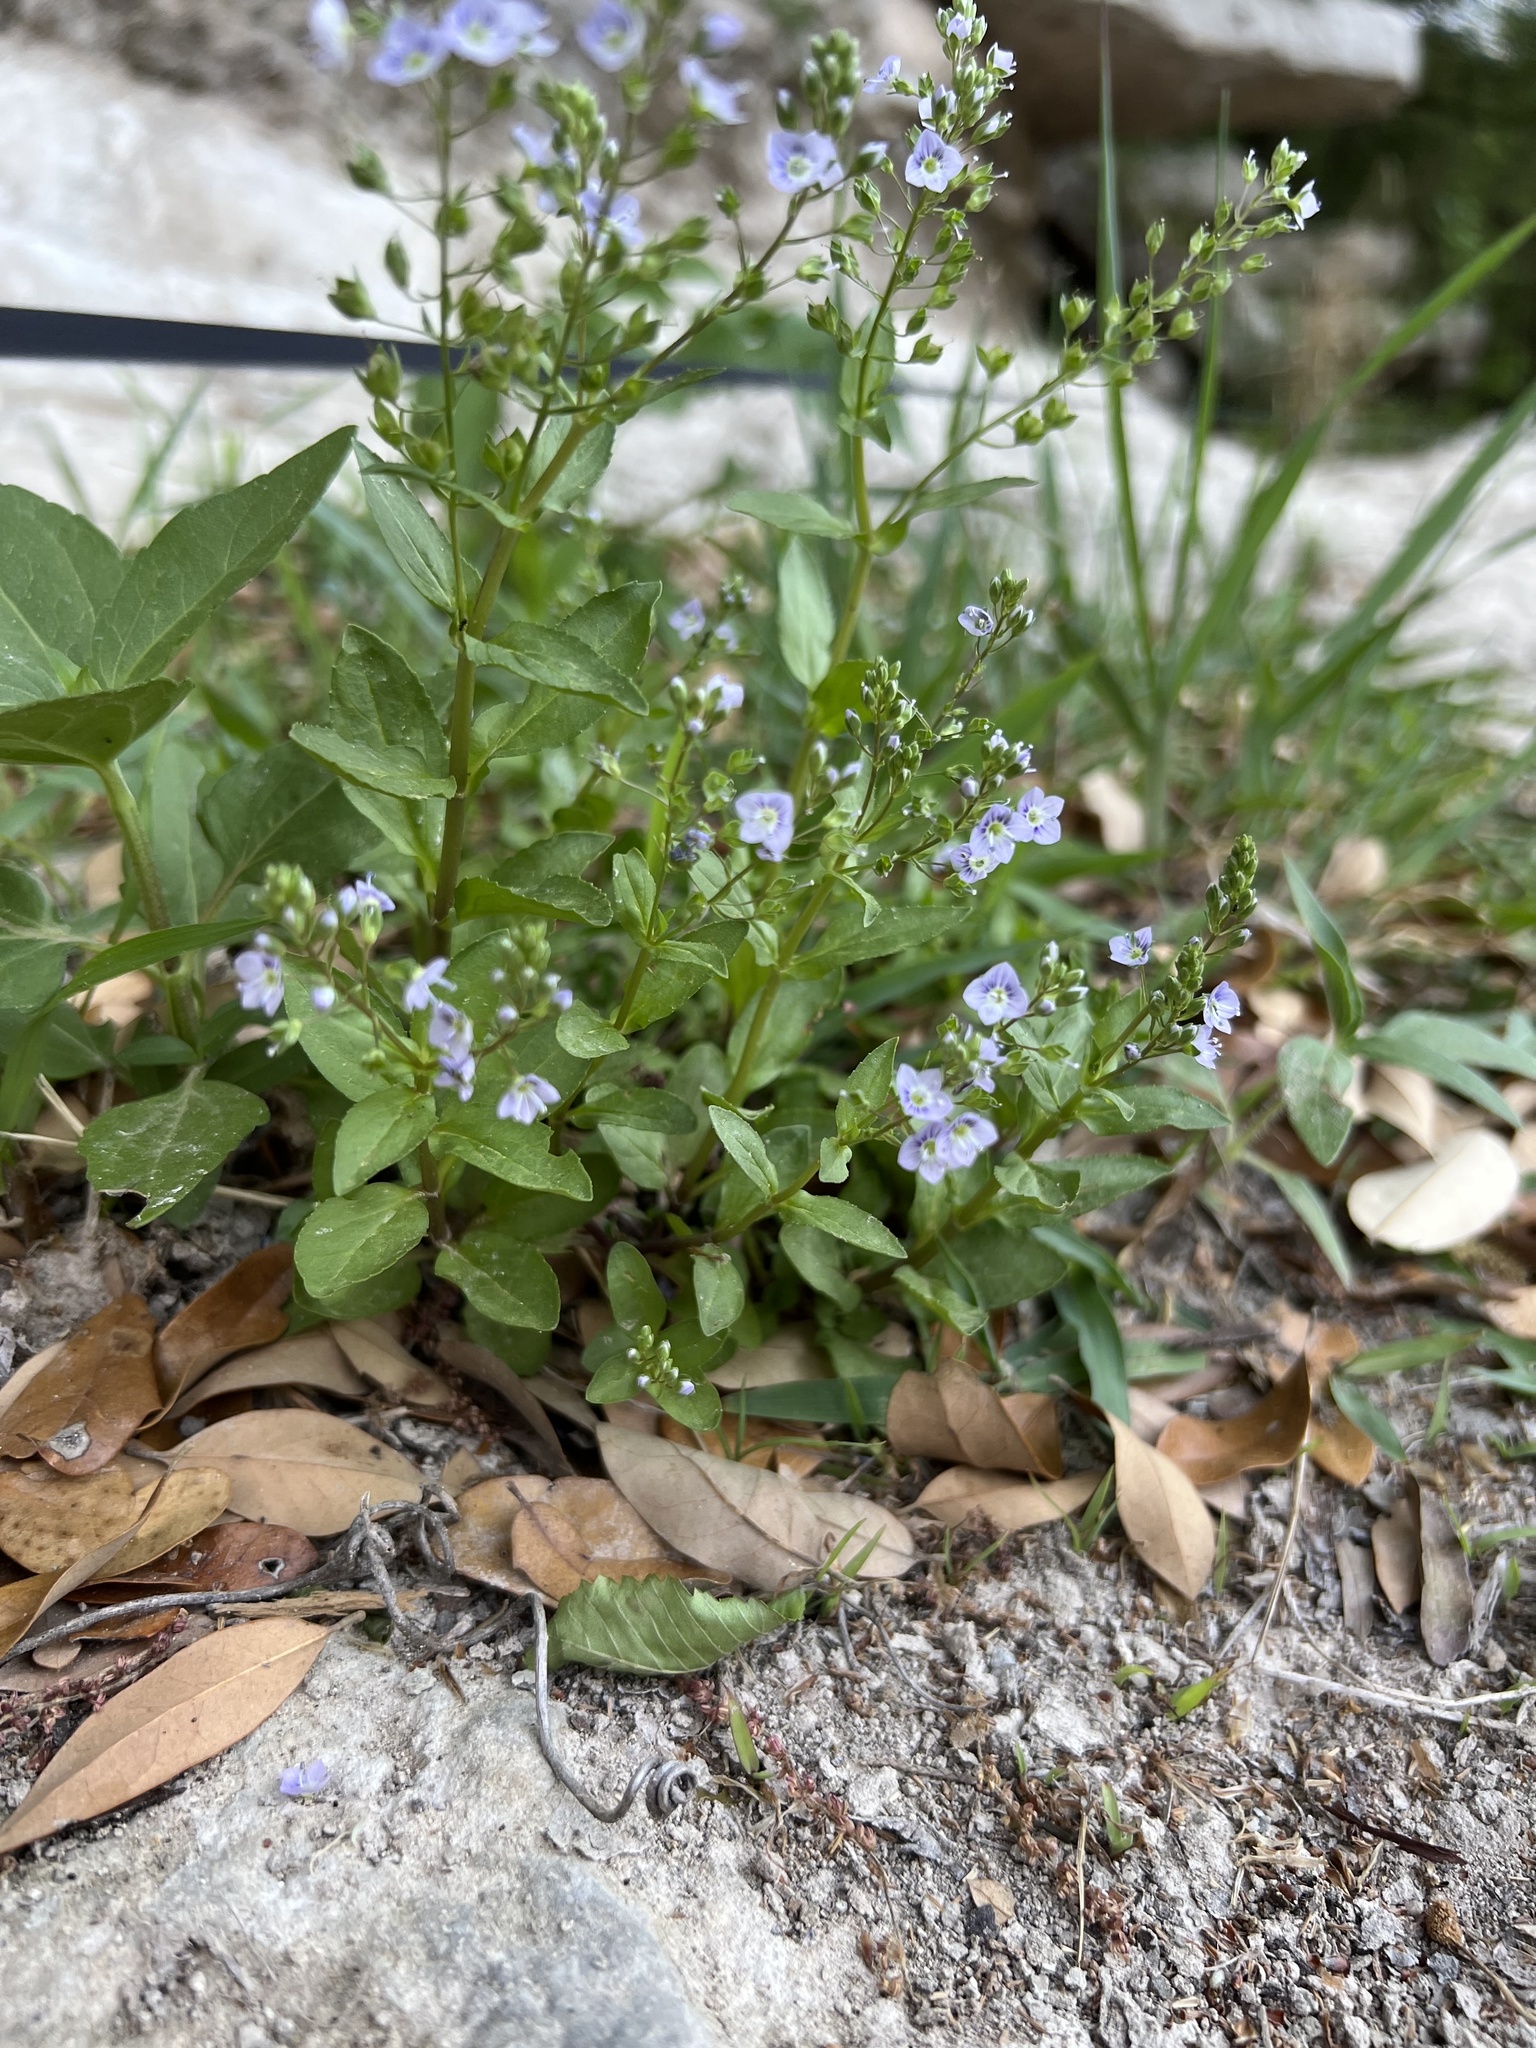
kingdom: Plantae
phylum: Tracheophyta
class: Magnoliopsida
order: Lamiales
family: Plantaginaceae
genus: Veronica
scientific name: Veronica anagallis-aquatica
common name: Water speedwell
